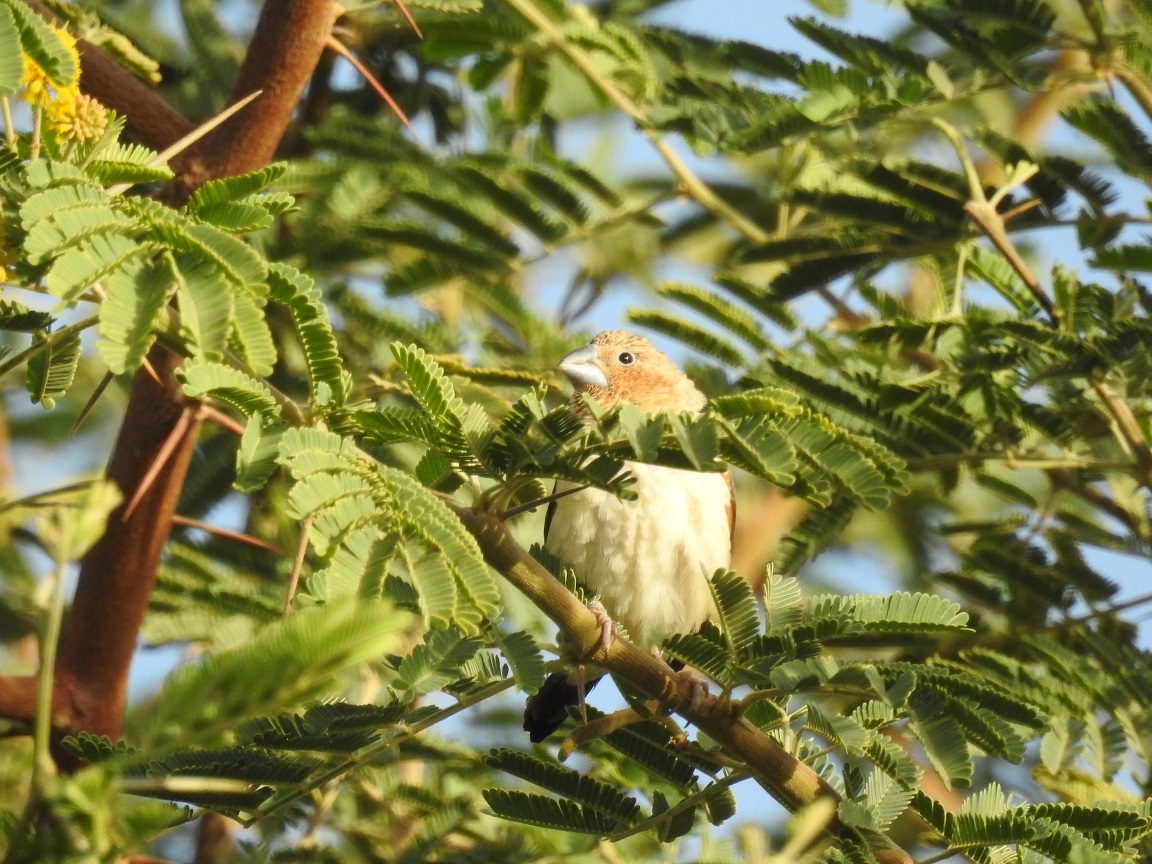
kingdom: Animalia
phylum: Chordata
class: Aves
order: Passeriformes
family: Estrildidae
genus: Euodice
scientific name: Euodice cantans
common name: African silverbill
